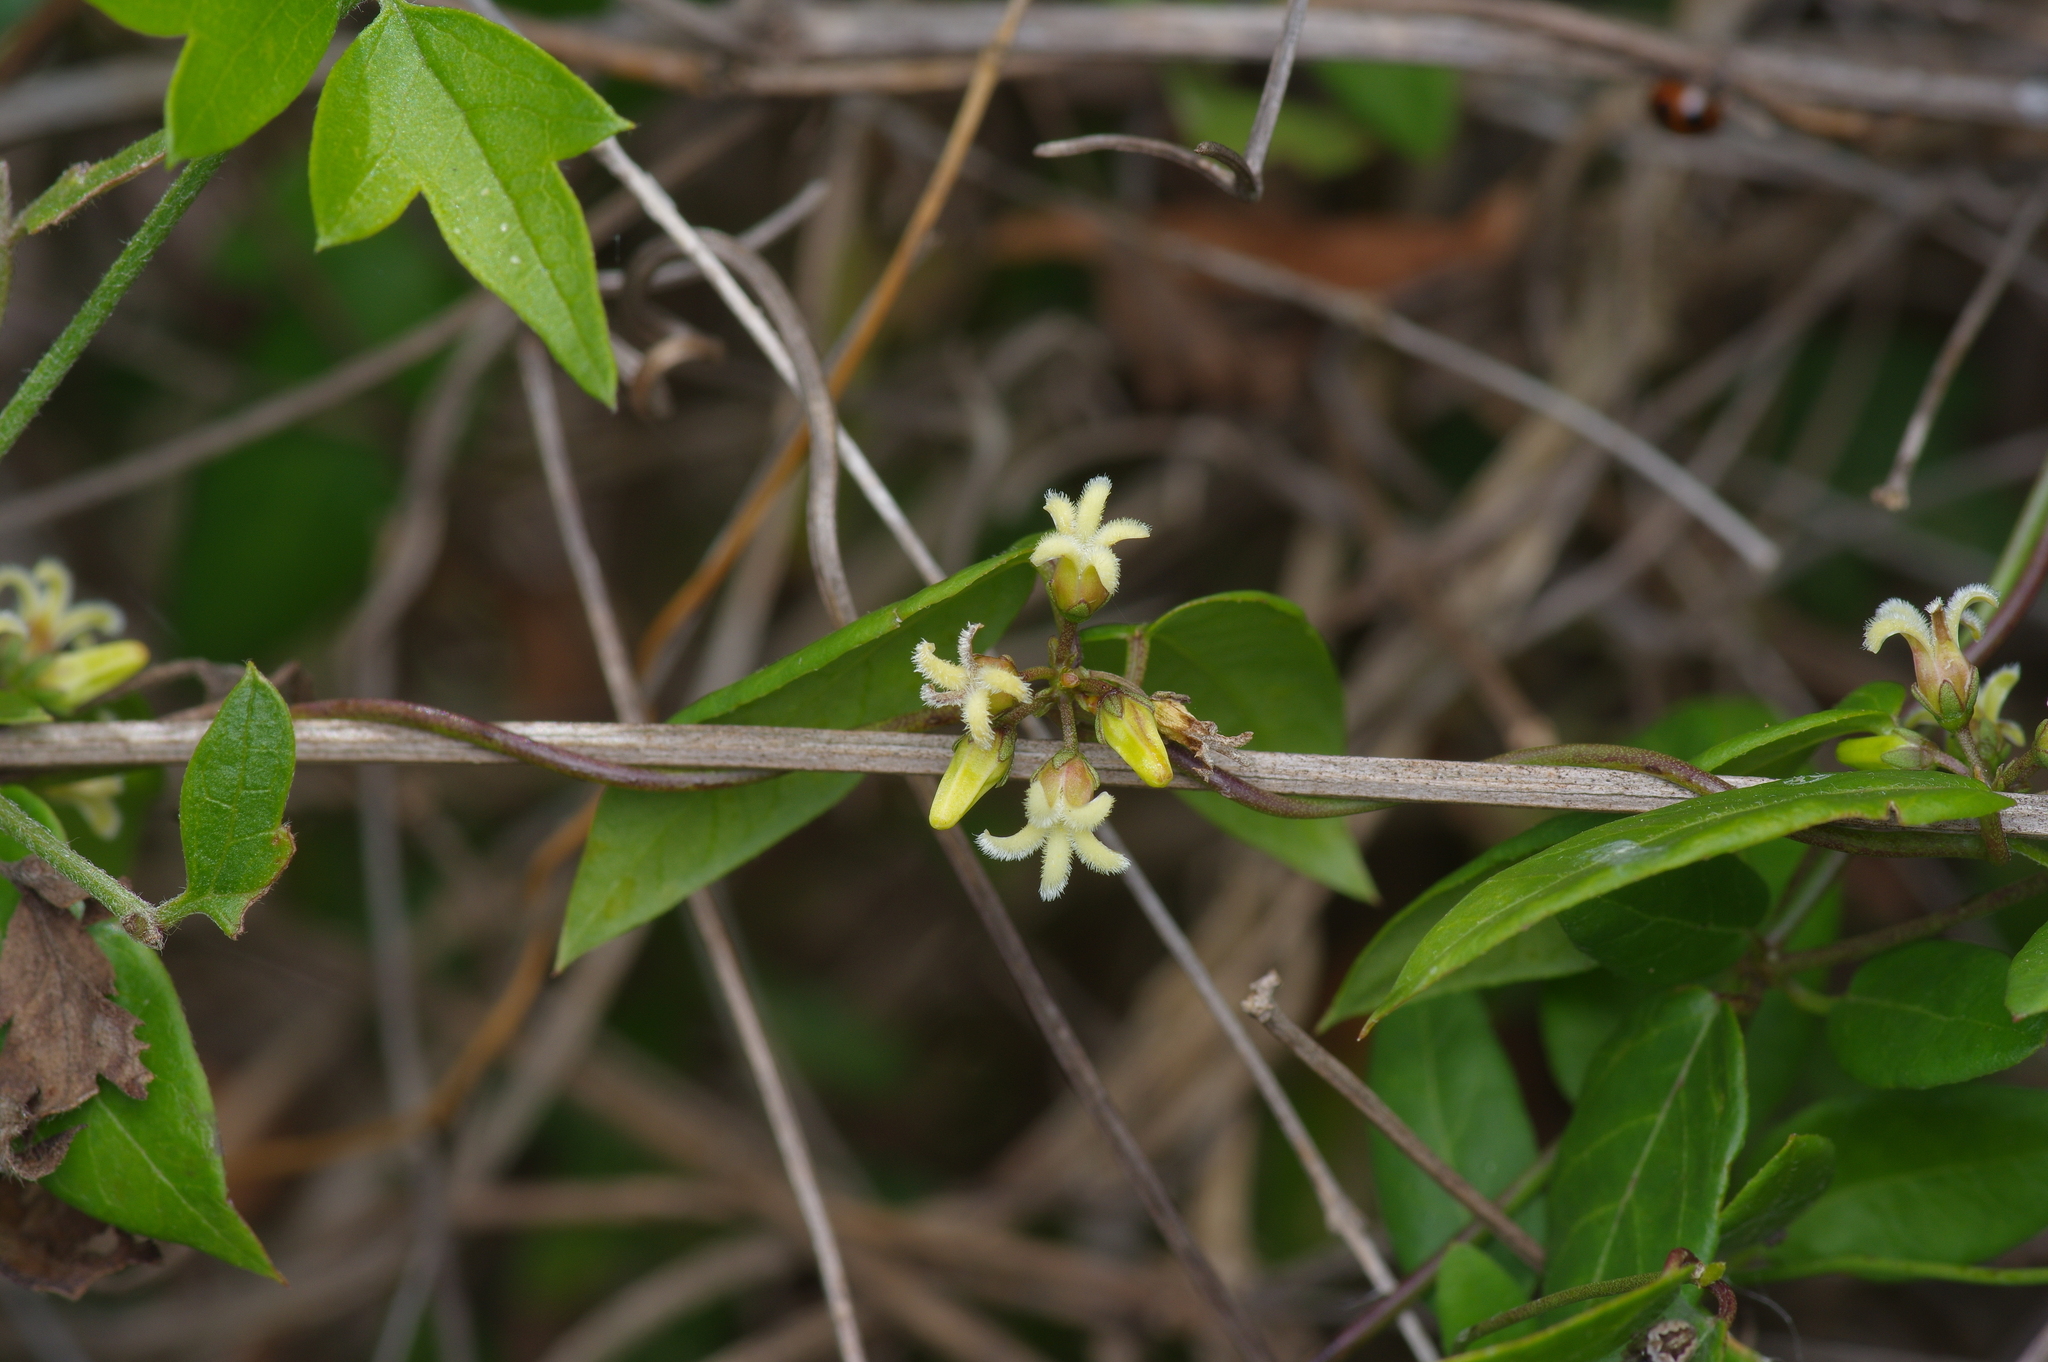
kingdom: Plantae
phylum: Tracheophyta
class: Magnoliopsida
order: Gentianales
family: Apocynaceae
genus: Metastelma
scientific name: Metastelma barbigerum
